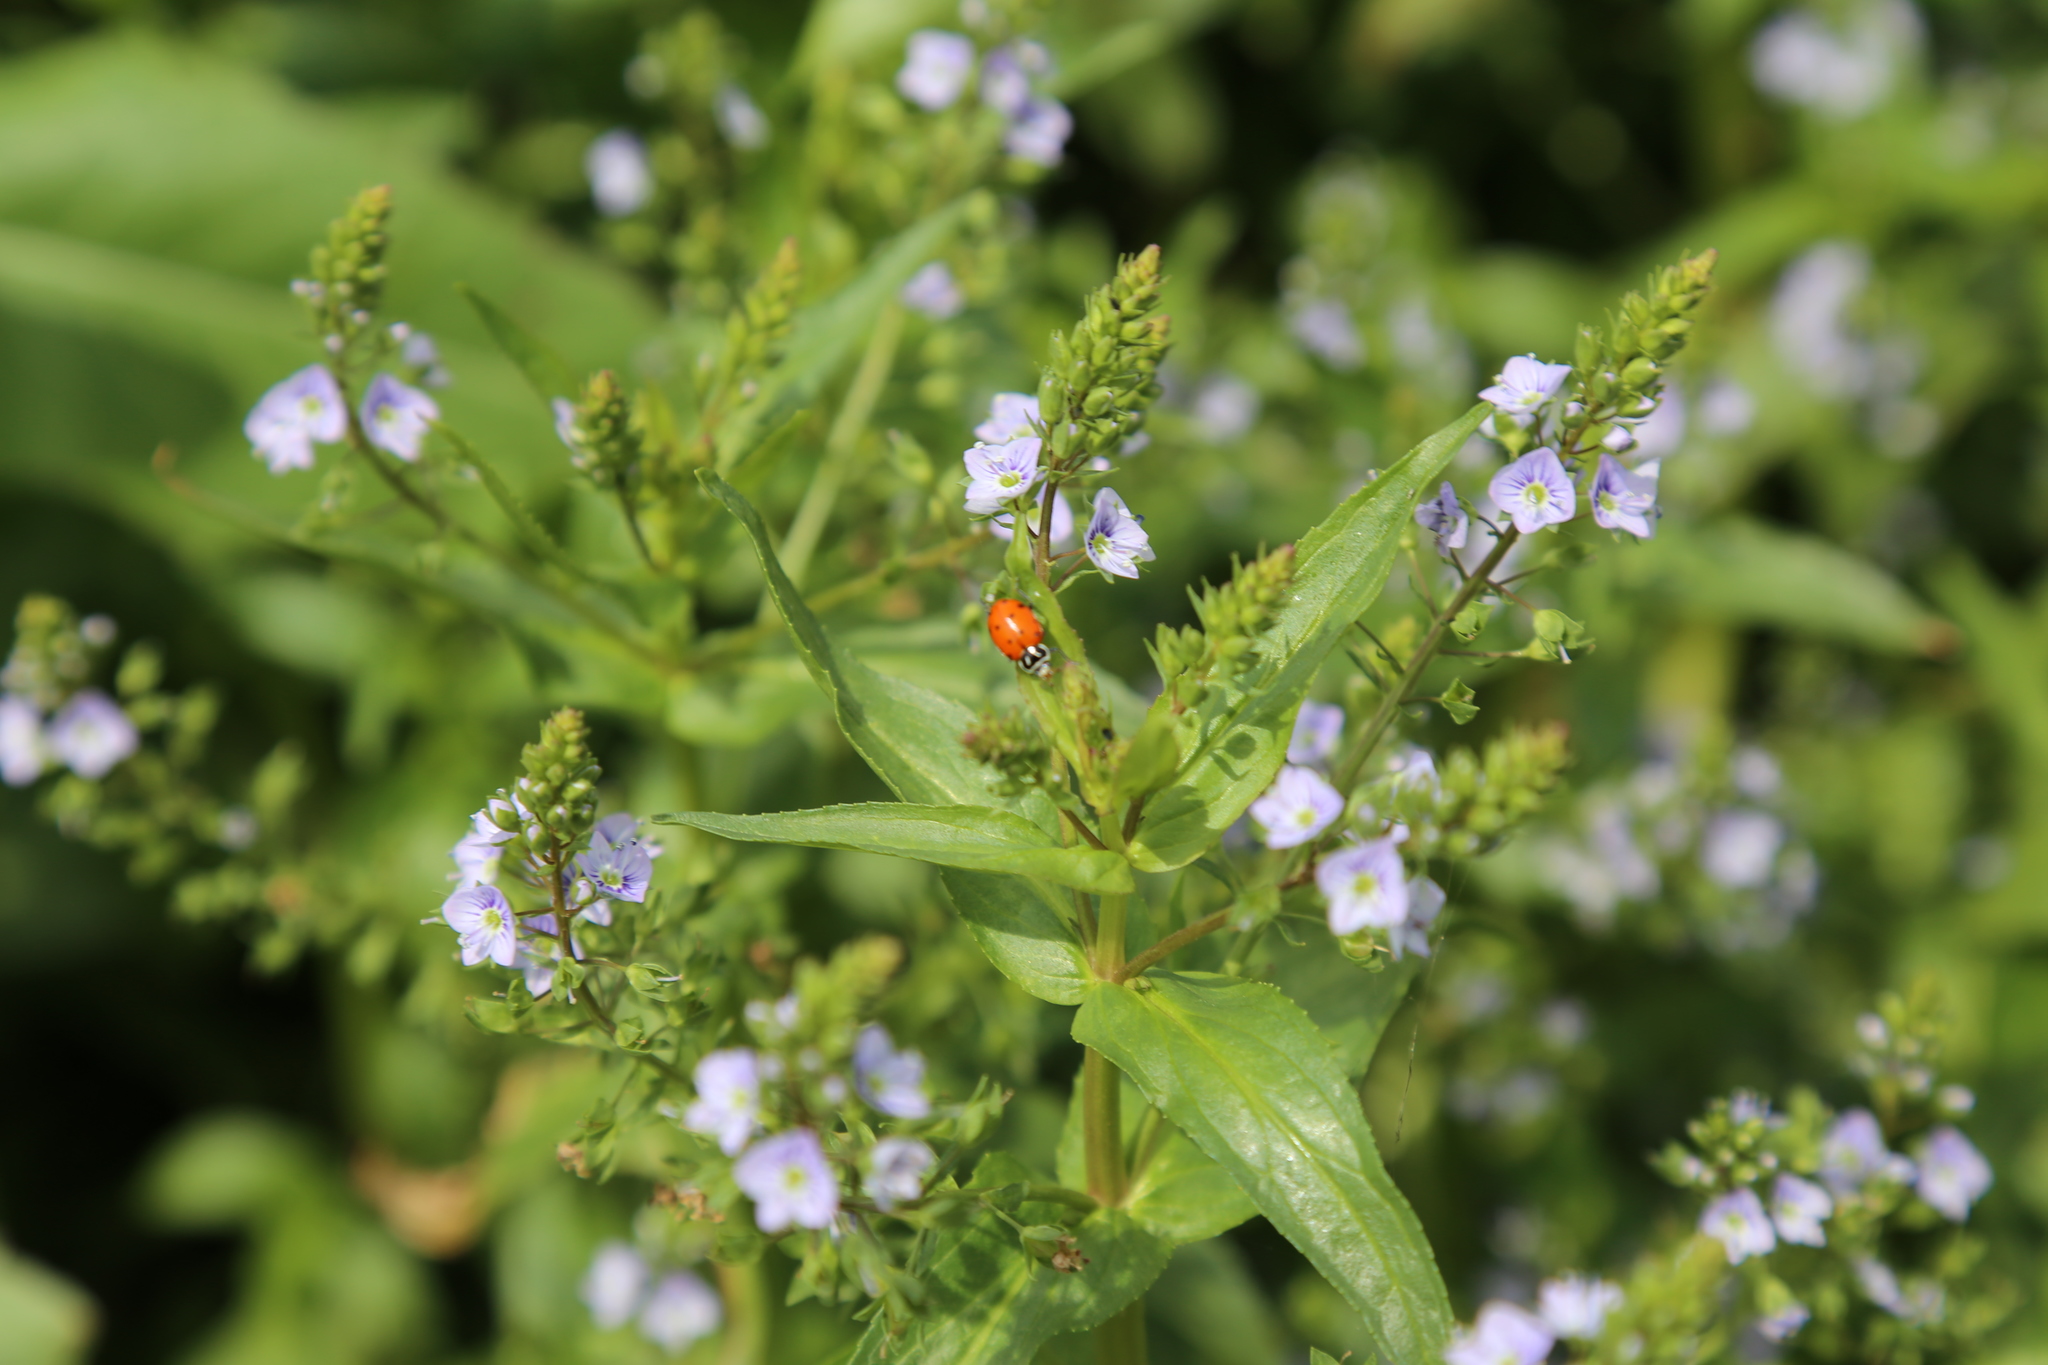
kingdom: Animalia
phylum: Arthropoda
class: Insecta
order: Coleoptera
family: Coccinellidae
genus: Hippodamia
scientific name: Hippodamia convergens
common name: Convergent lady beetle
